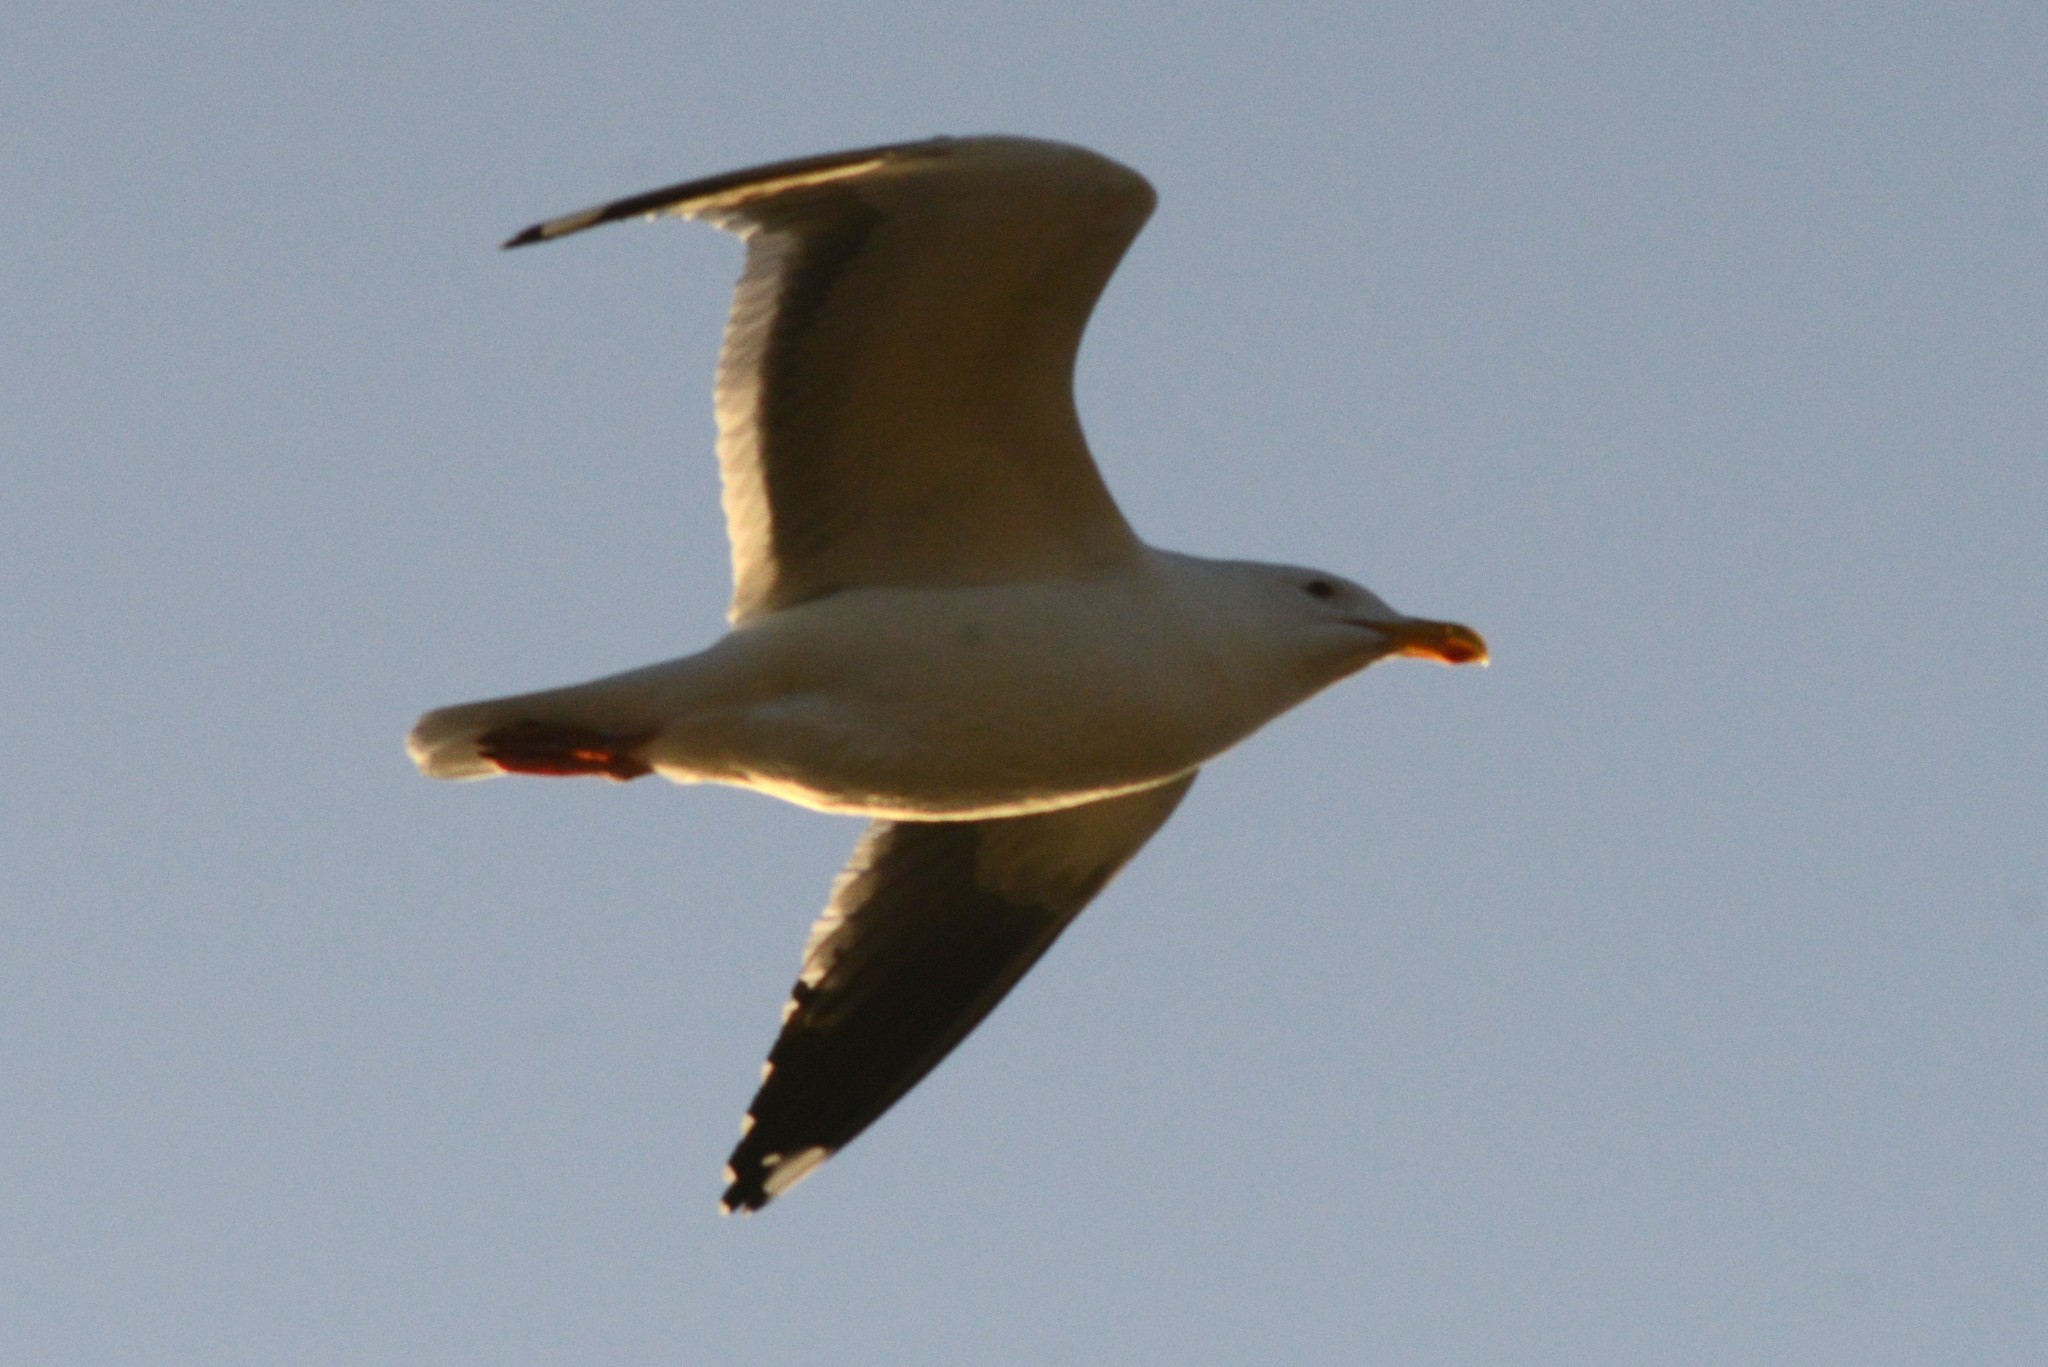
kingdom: Animalia
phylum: Chordata
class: Aves
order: Charadriiformes
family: Laridae
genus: Larus
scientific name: Larus occidentalis
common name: Western gull
